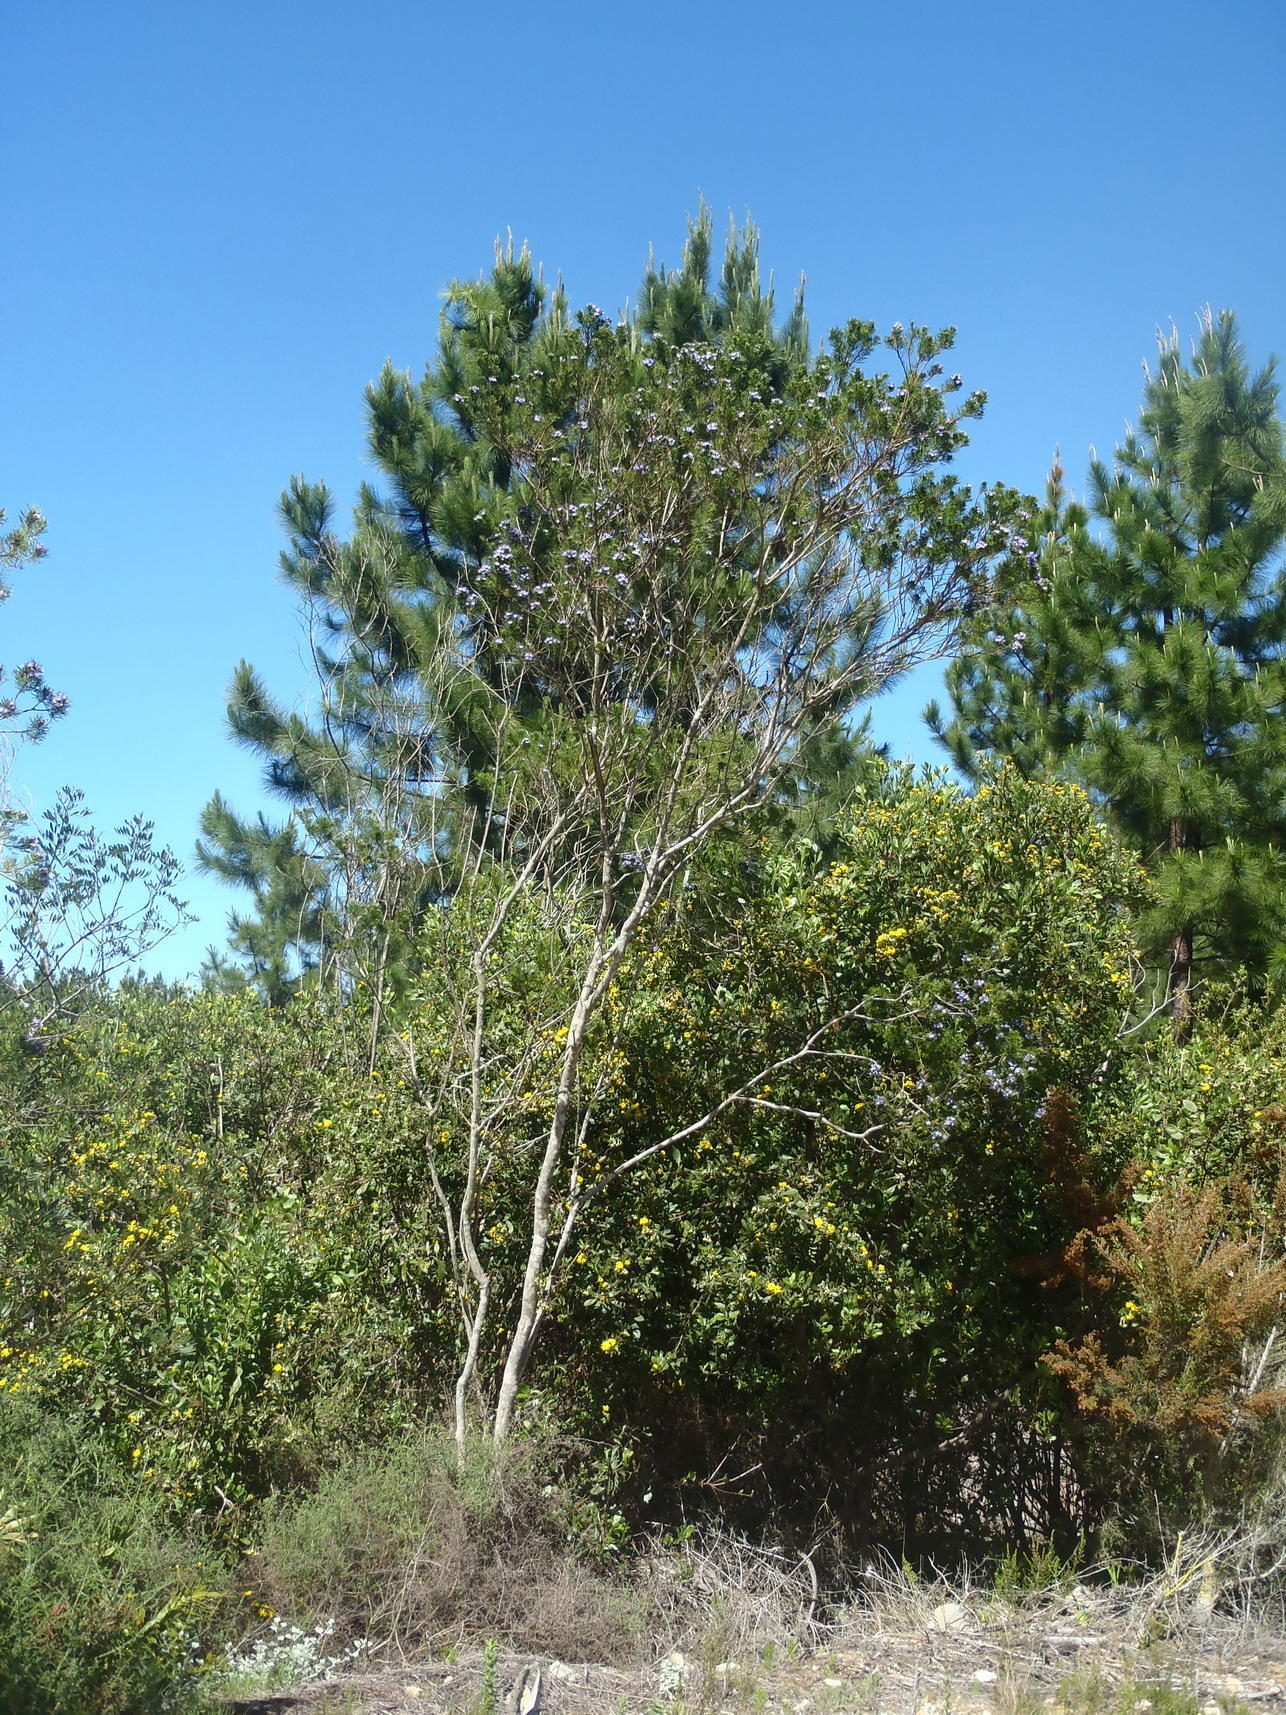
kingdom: Plantae
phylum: Tracheophyta
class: Magnoliopsida
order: Fabales
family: Fabaceae
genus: Psoralea
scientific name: Psoralea affinis
